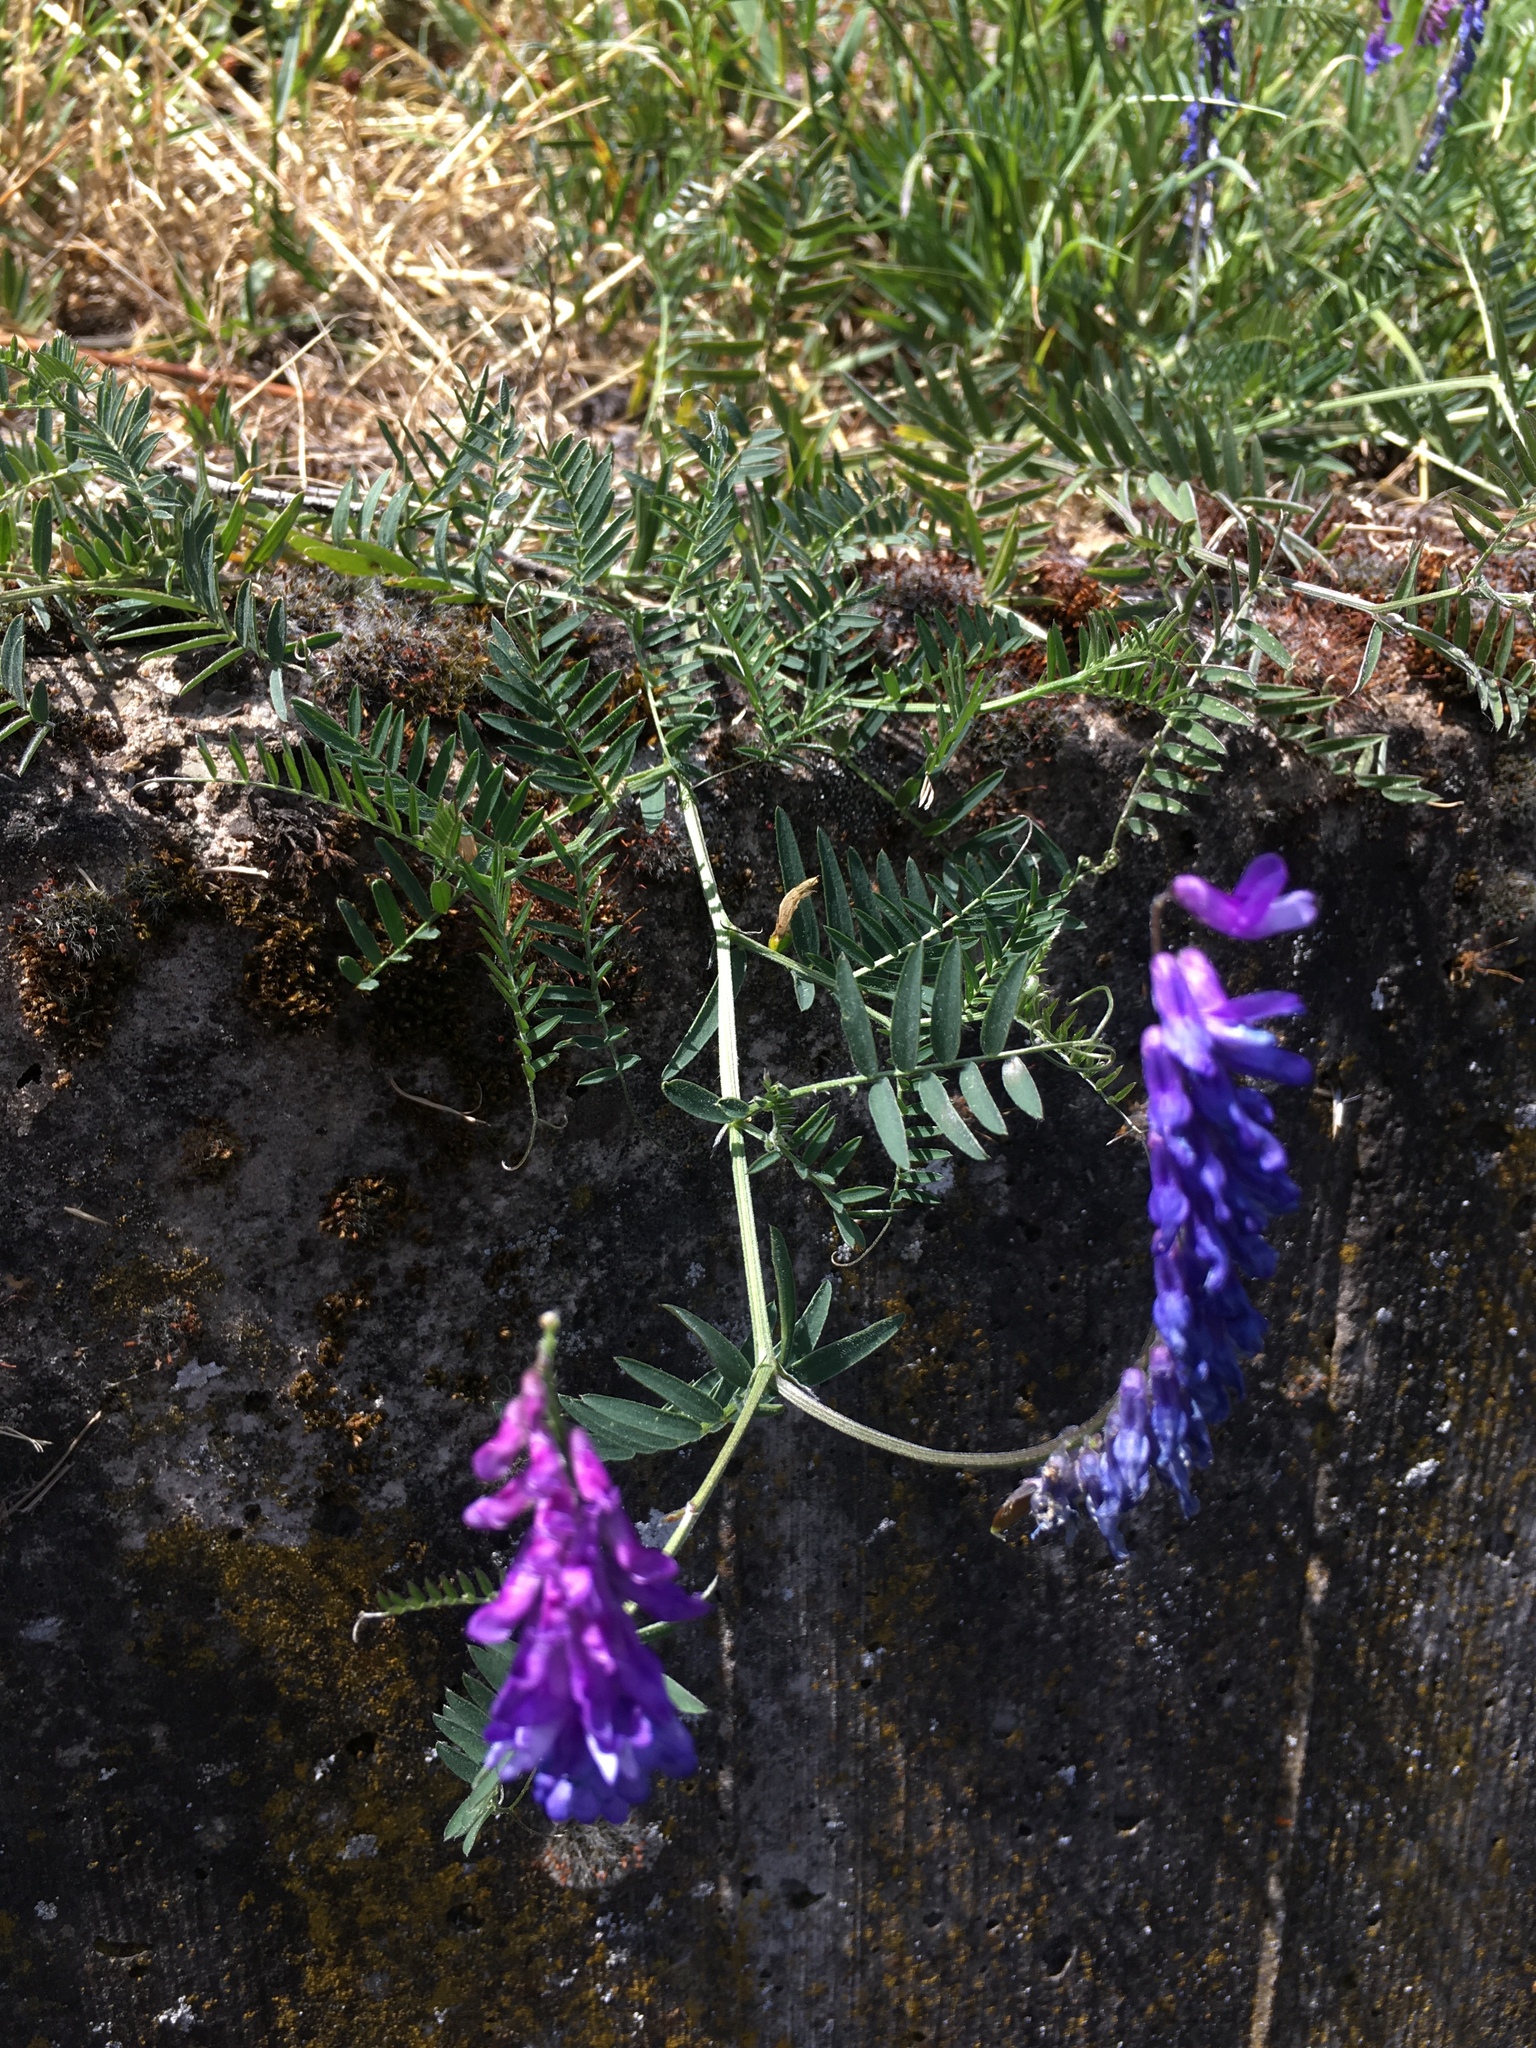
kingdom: Plantae
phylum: Tracheophyta
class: Magnoliopsida
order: Fabales
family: Fabaceae
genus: Vicia
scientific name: Vicia cracca
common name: Bird vetch
